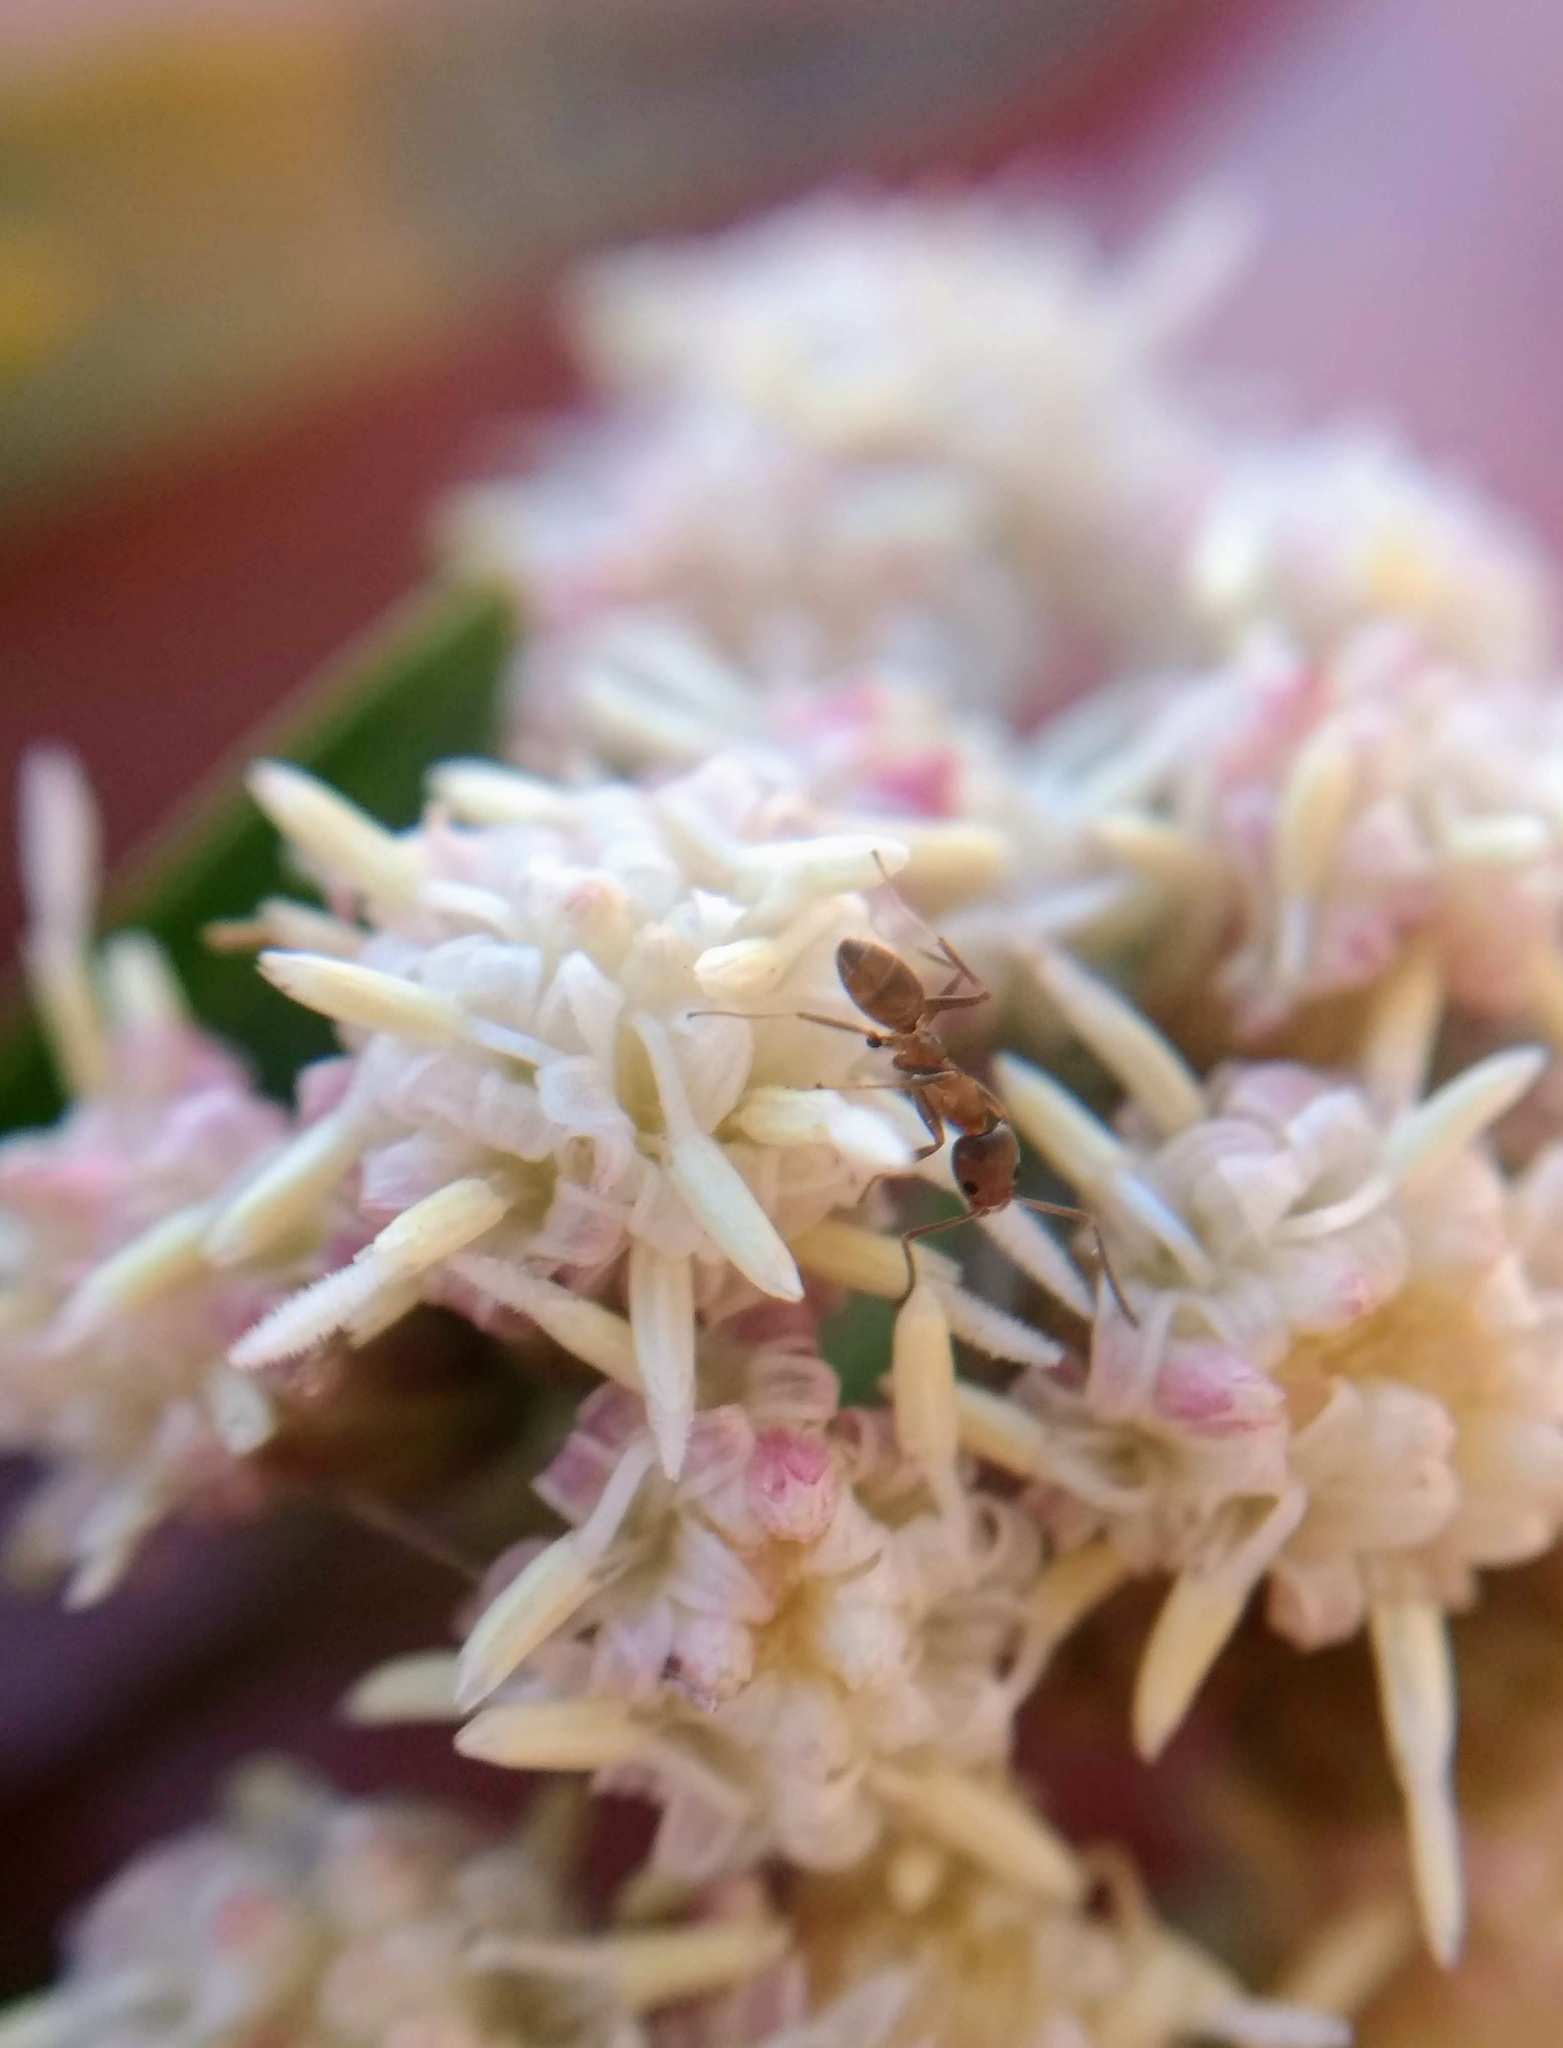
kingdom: Animalia
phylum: Arthropoda
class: Insecta
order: Hymenoptera
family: Formicidae
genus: Linepithema
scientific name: Linepithema humile
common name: Argentine ant
